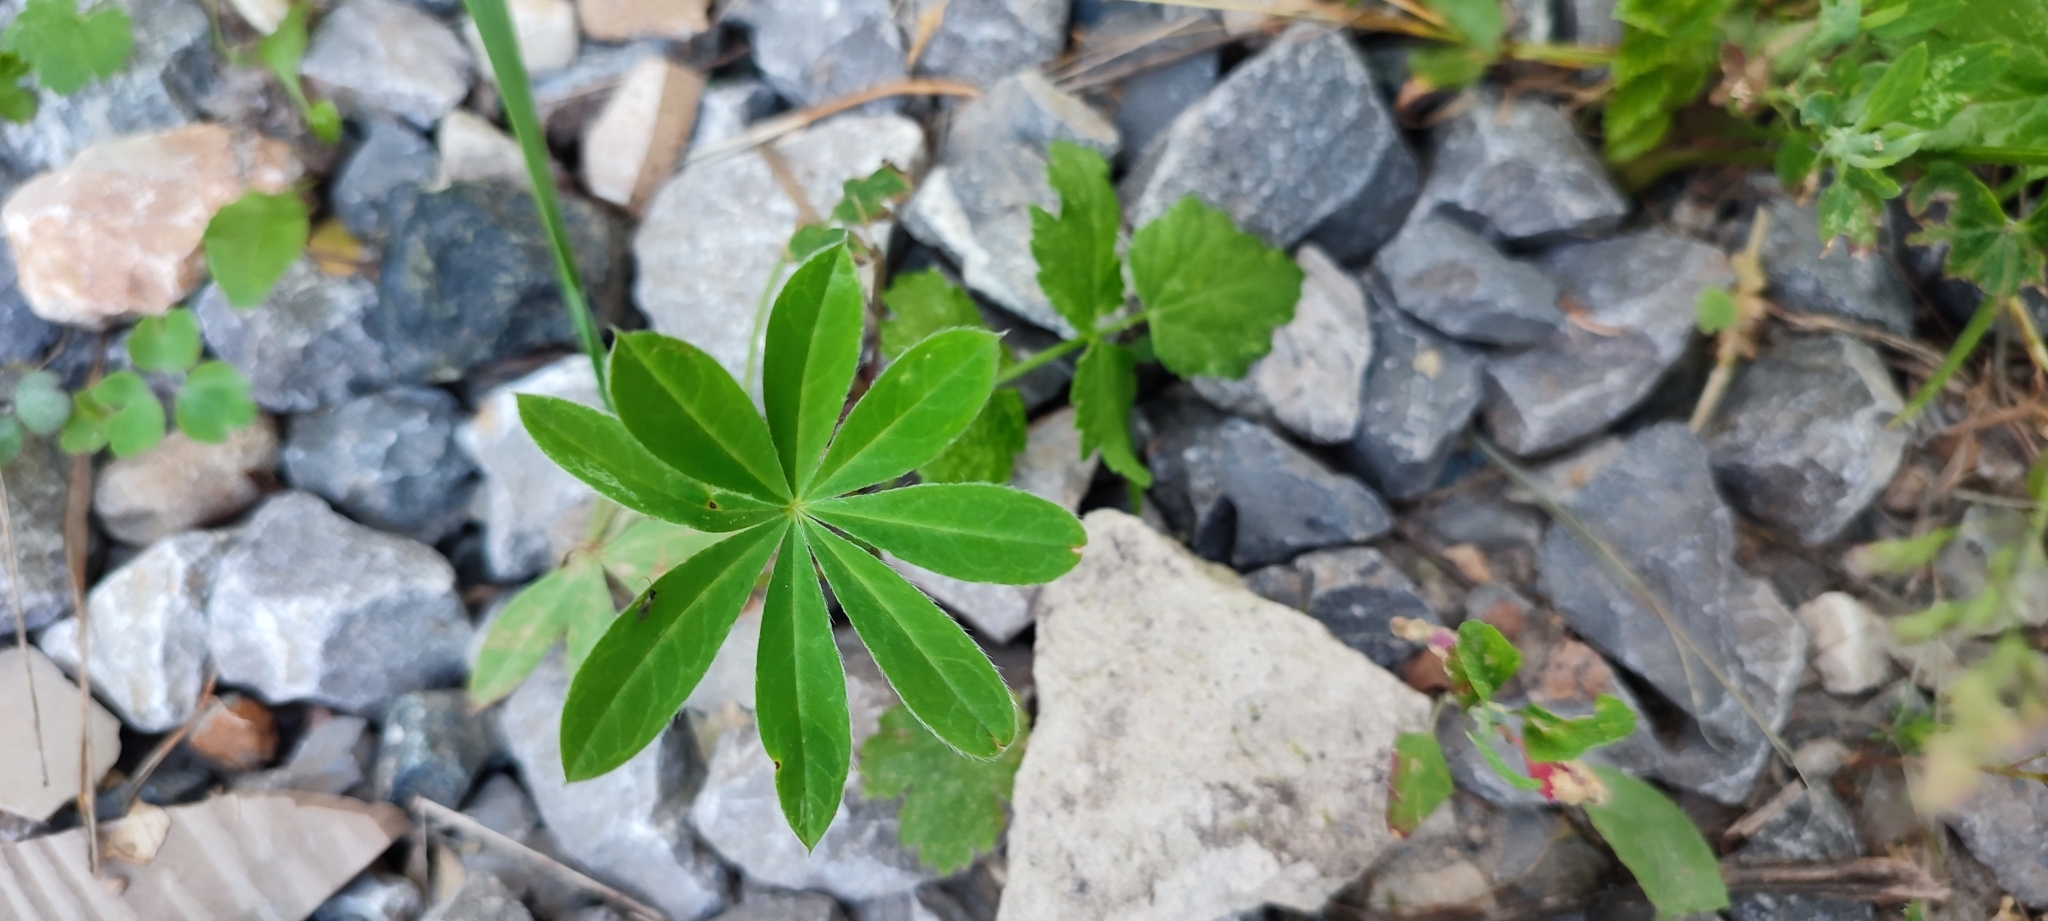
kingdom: Plantae
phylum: Tracheophyta
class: Magnoliopsida
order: Fabales
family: Fabaceae
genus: Lupinus
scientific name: Lupinus polyphyllus
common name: Garden lupin
